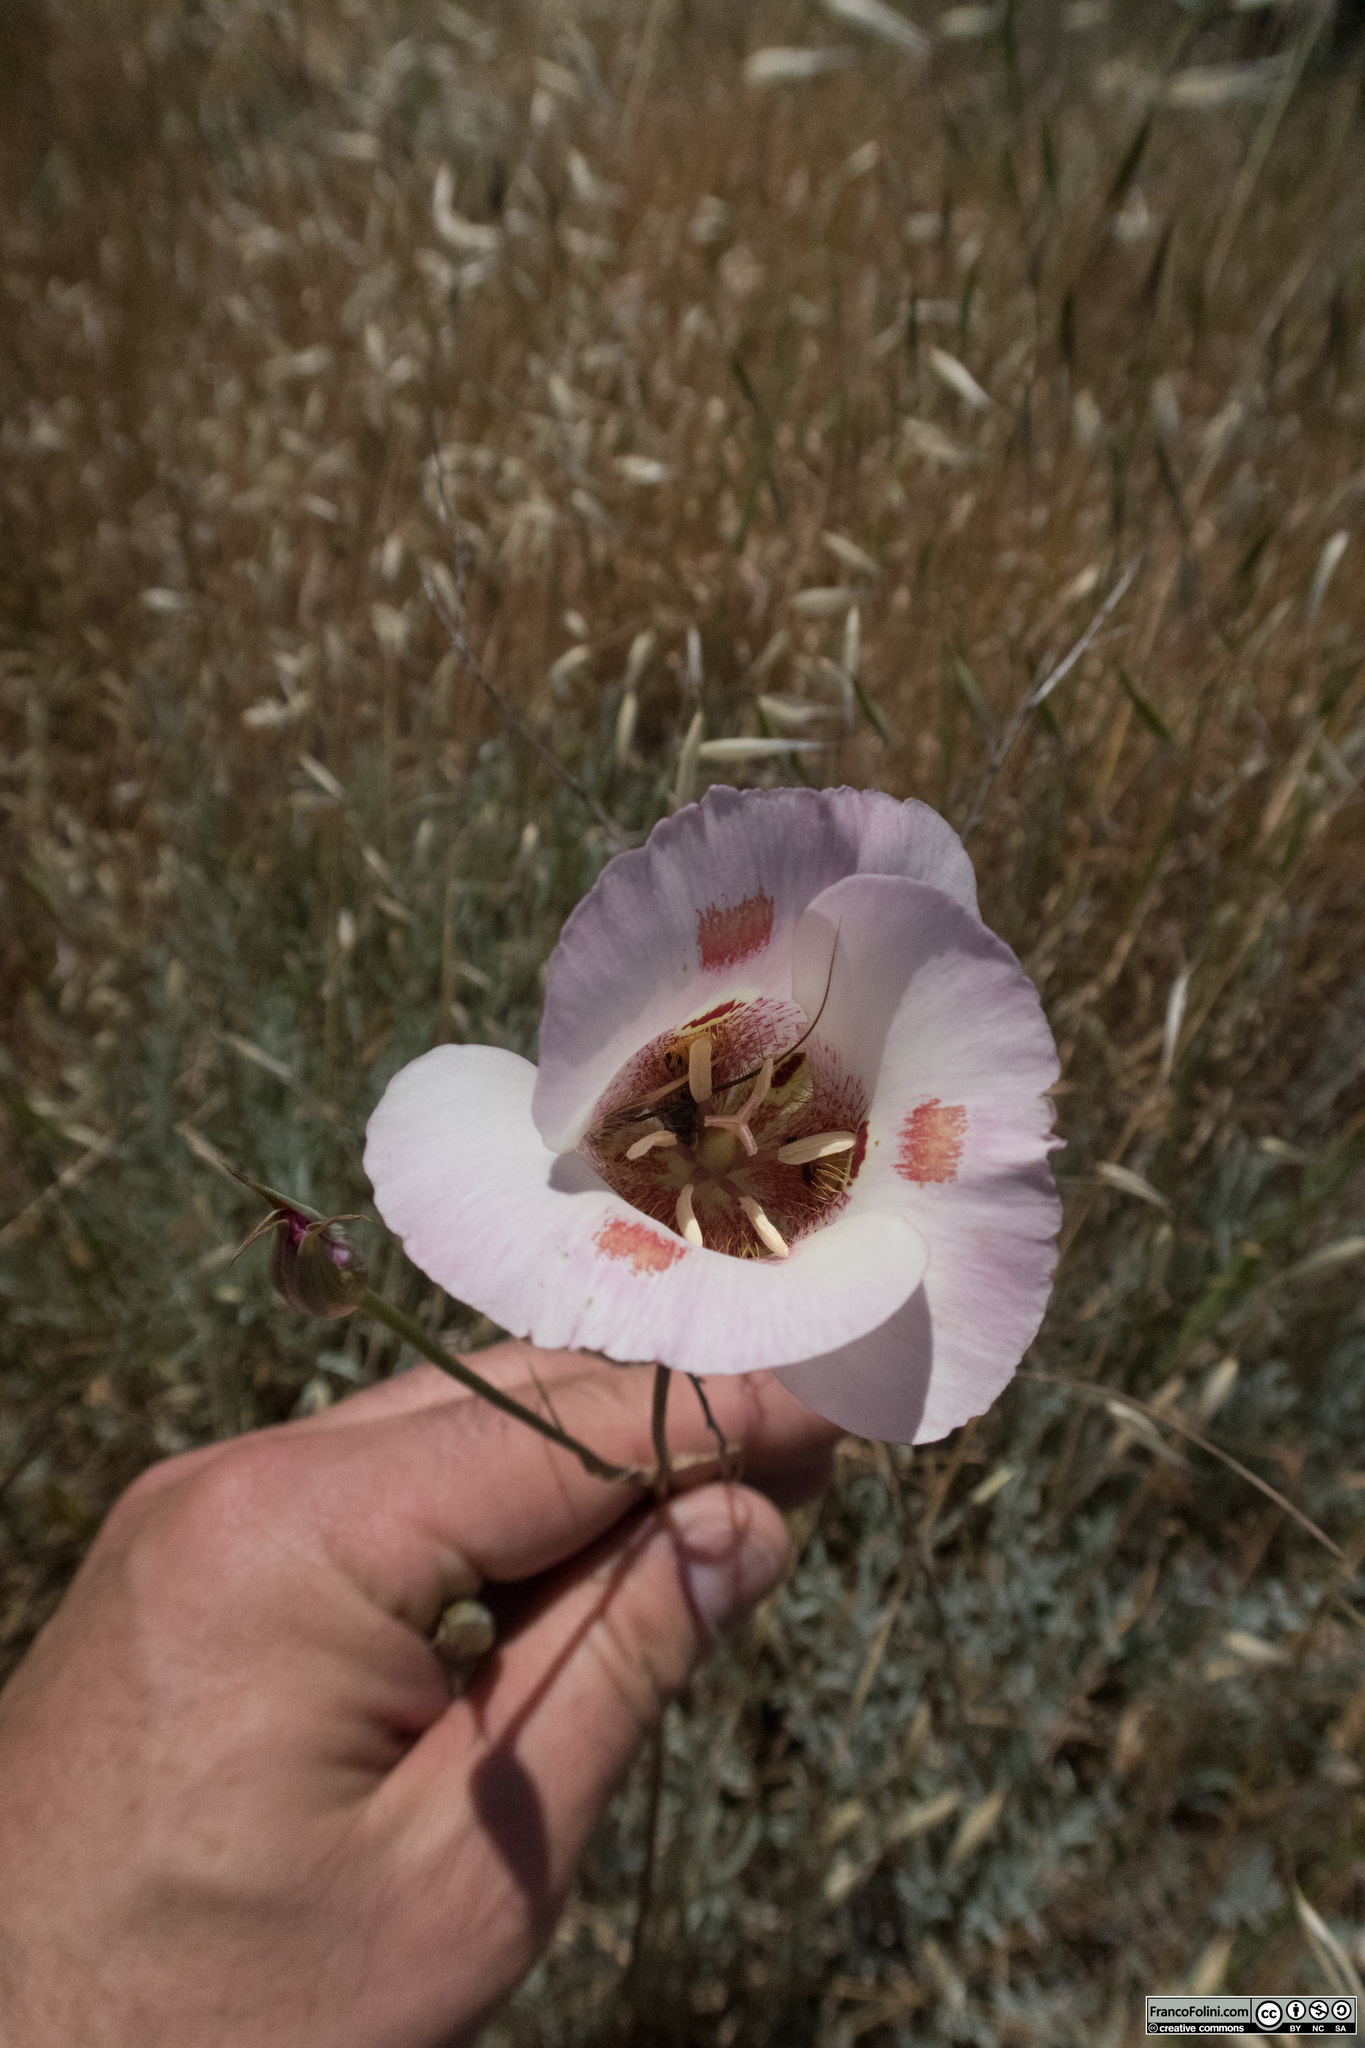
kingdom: Plantae
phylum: Tracheophyta
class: Liliopsida
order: Liliales
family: Liliaceae
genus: Calochortus
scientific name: Calochortus venustus
